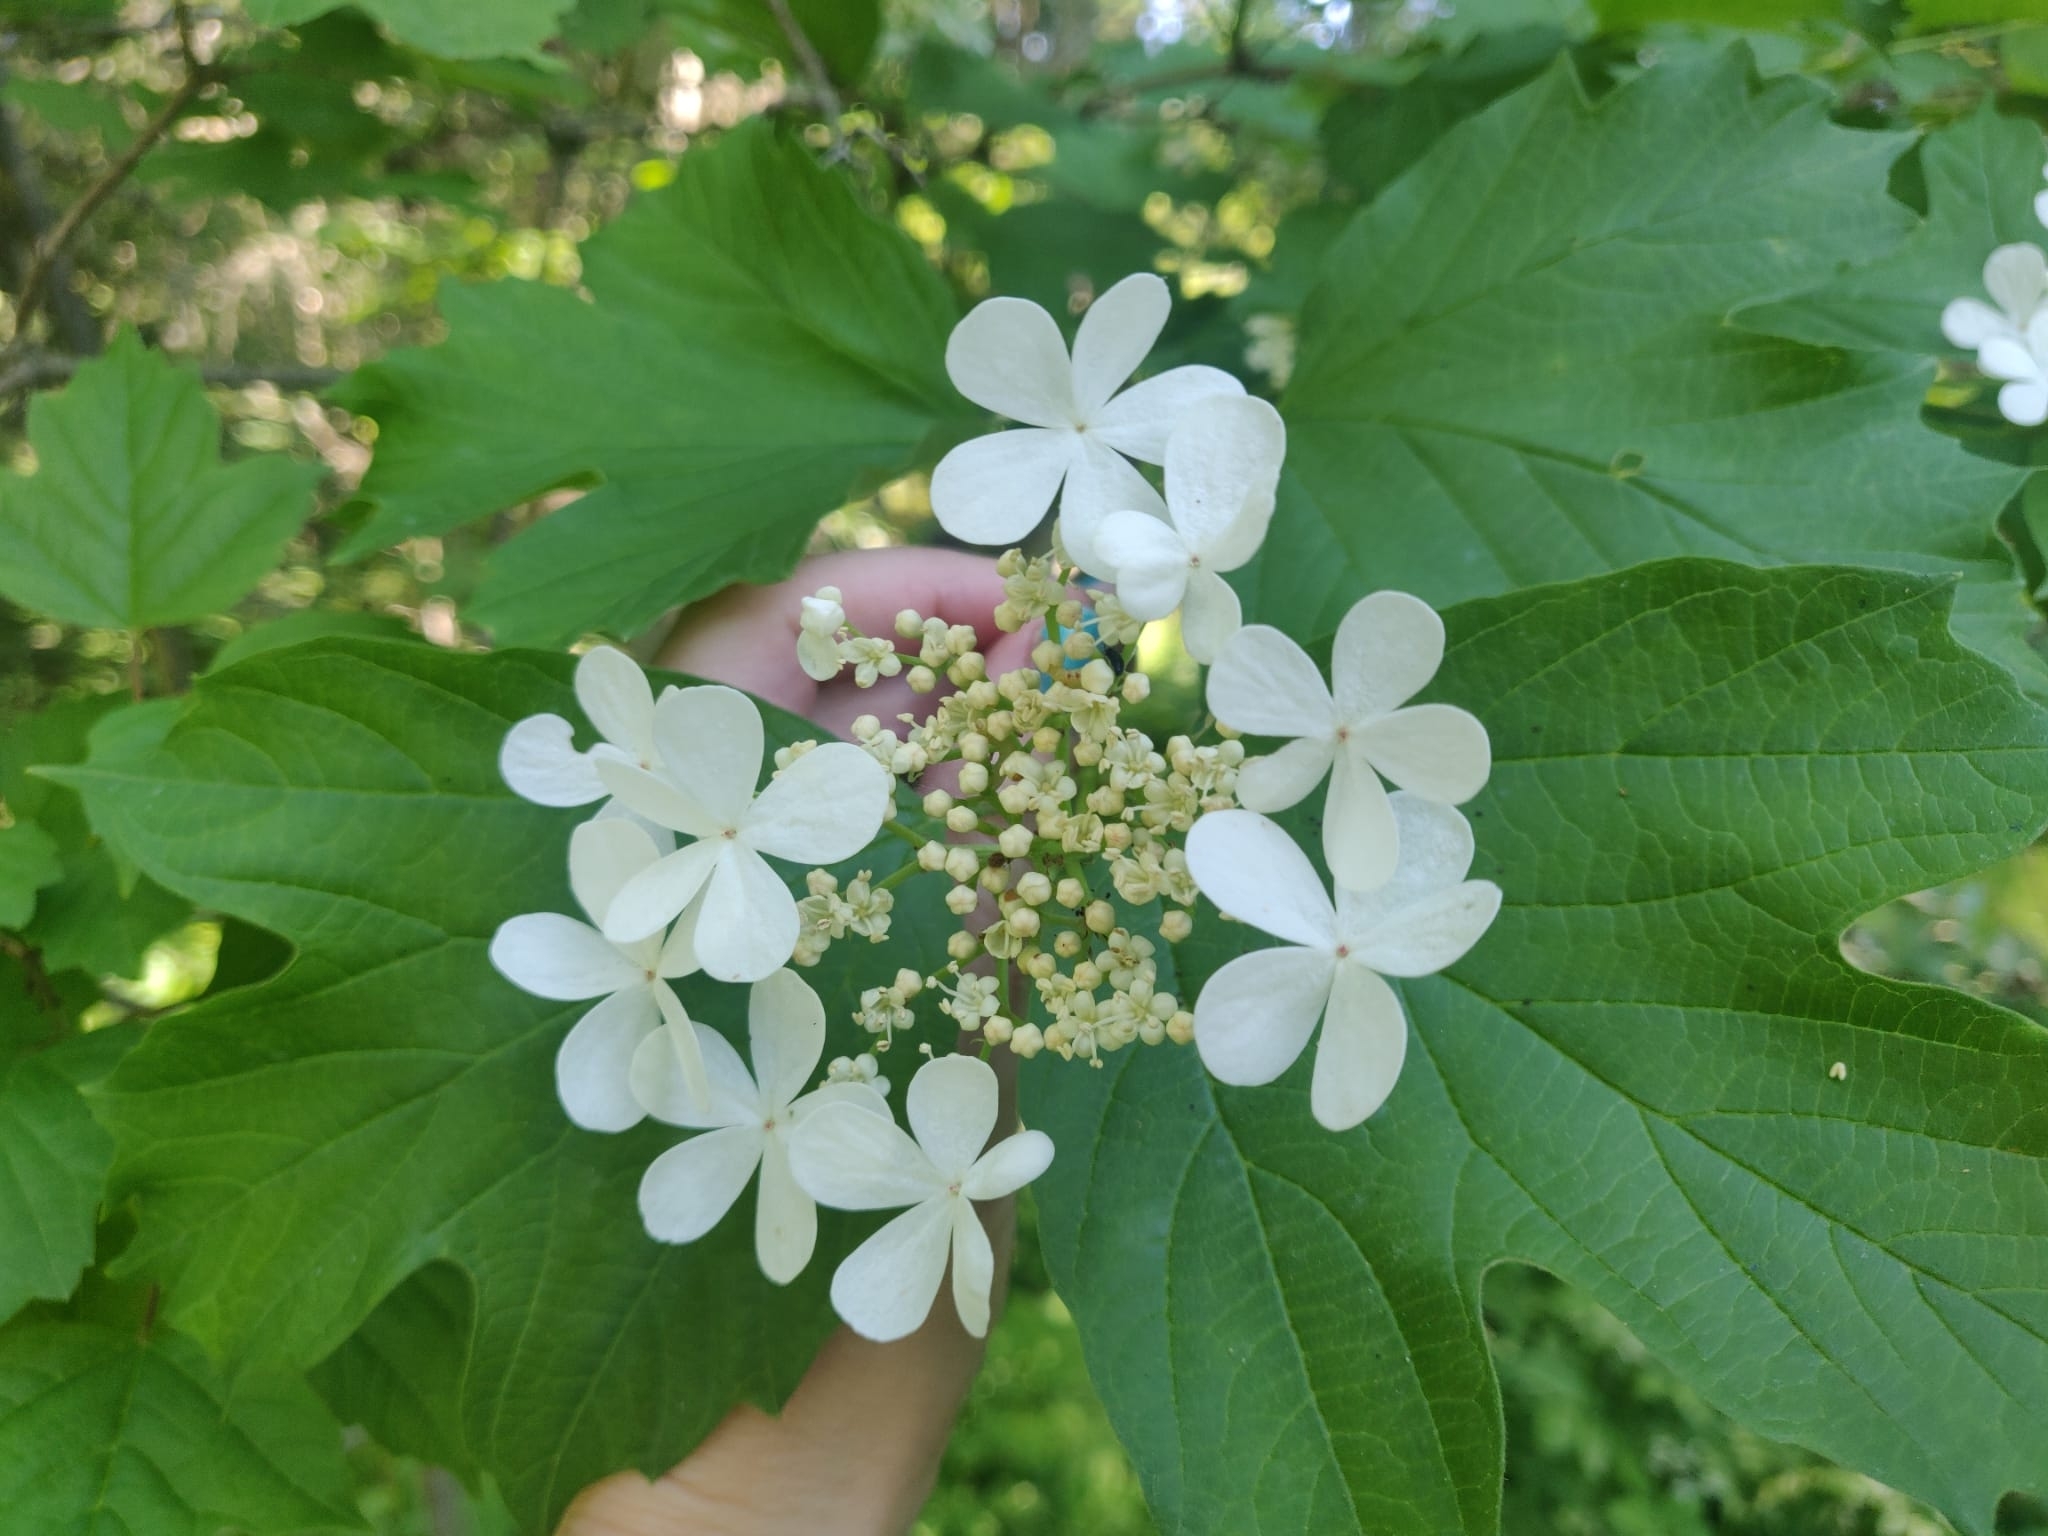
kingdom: Plantae
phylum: Tracheophyta
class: Magnoliopsida
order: Dipsacales
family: Viburnaceae
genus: Viburnum
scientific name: Viburnum opulus
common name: Guelder-rose
